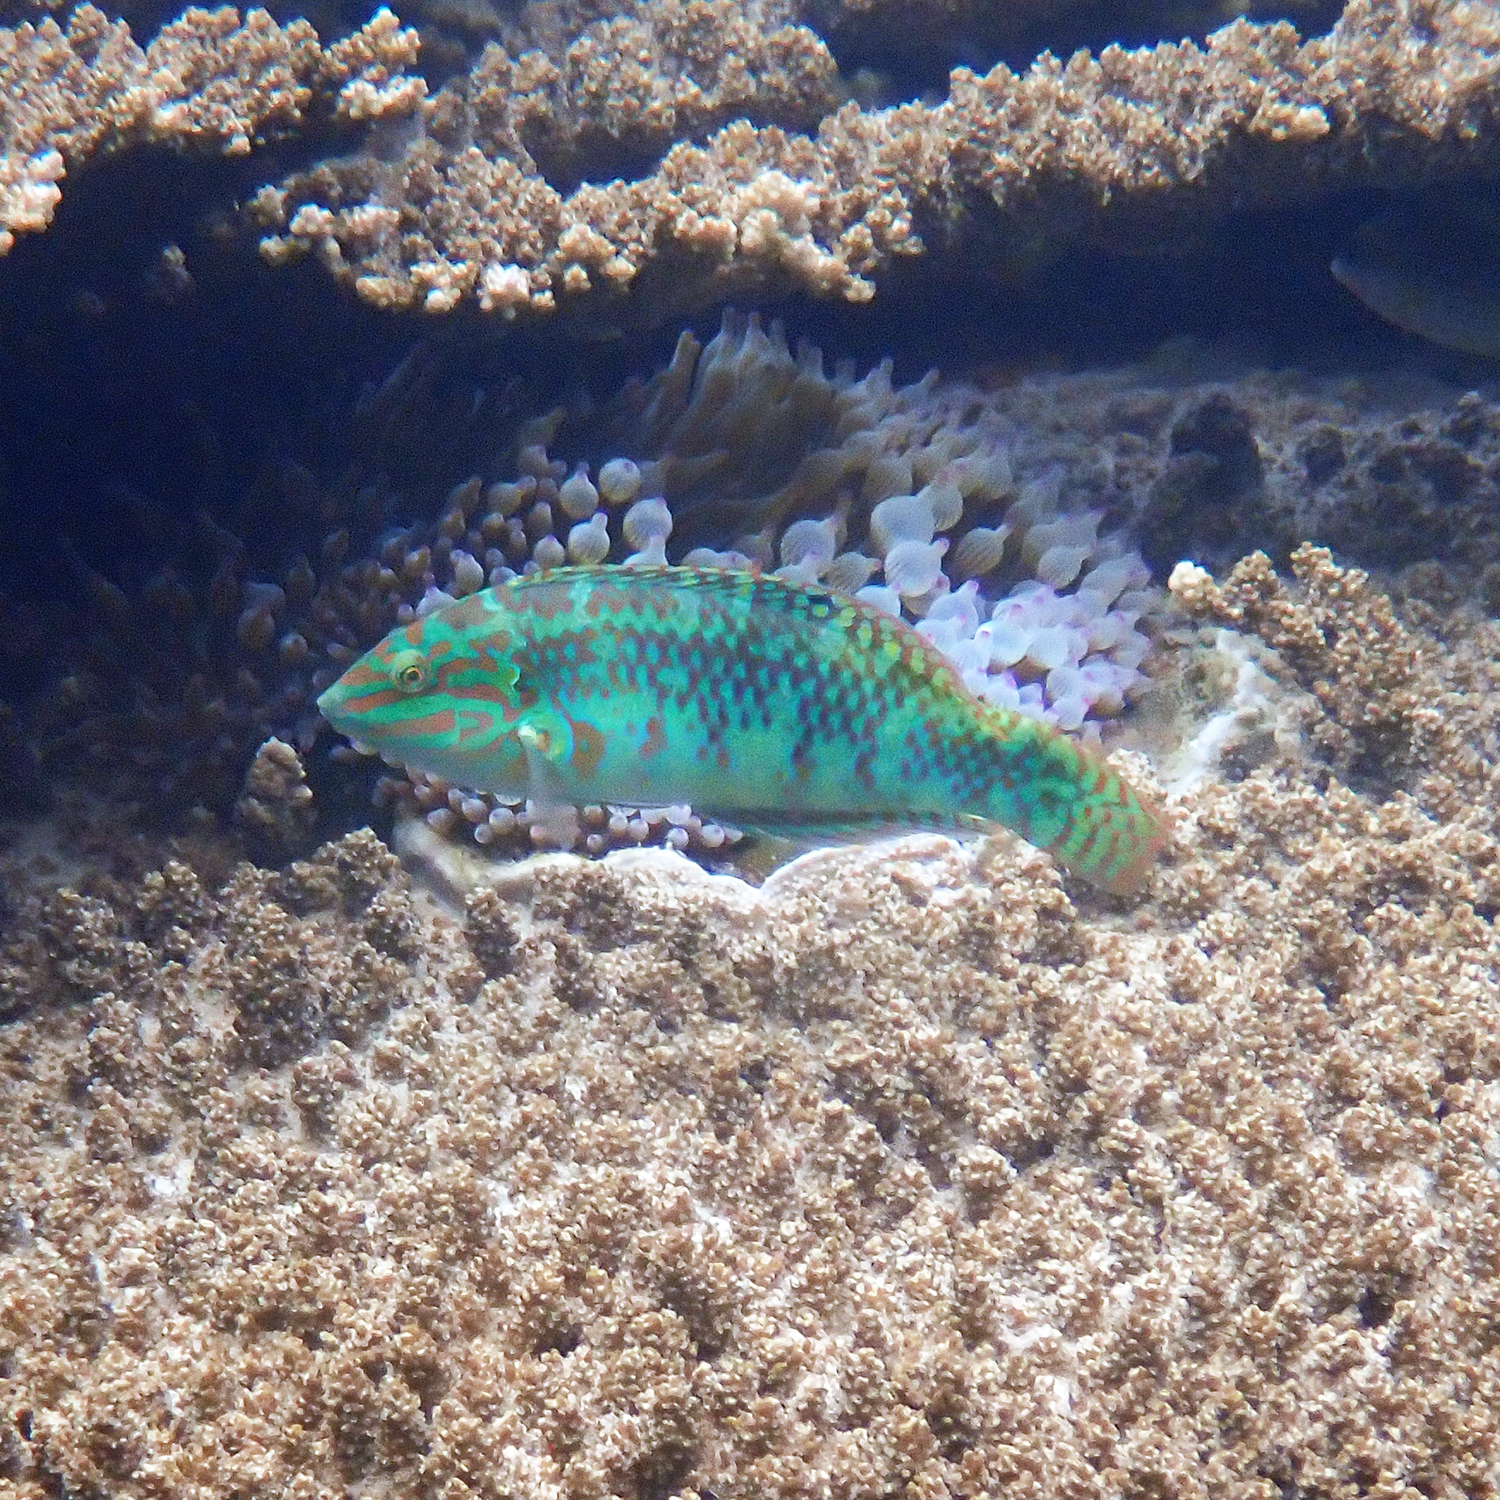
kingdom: Animalia
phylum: Chordata
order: Perciformes
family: Labridae
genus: Halichoeres
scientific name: Halichoeres margaritaceus
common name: Pink-belly wrasse
